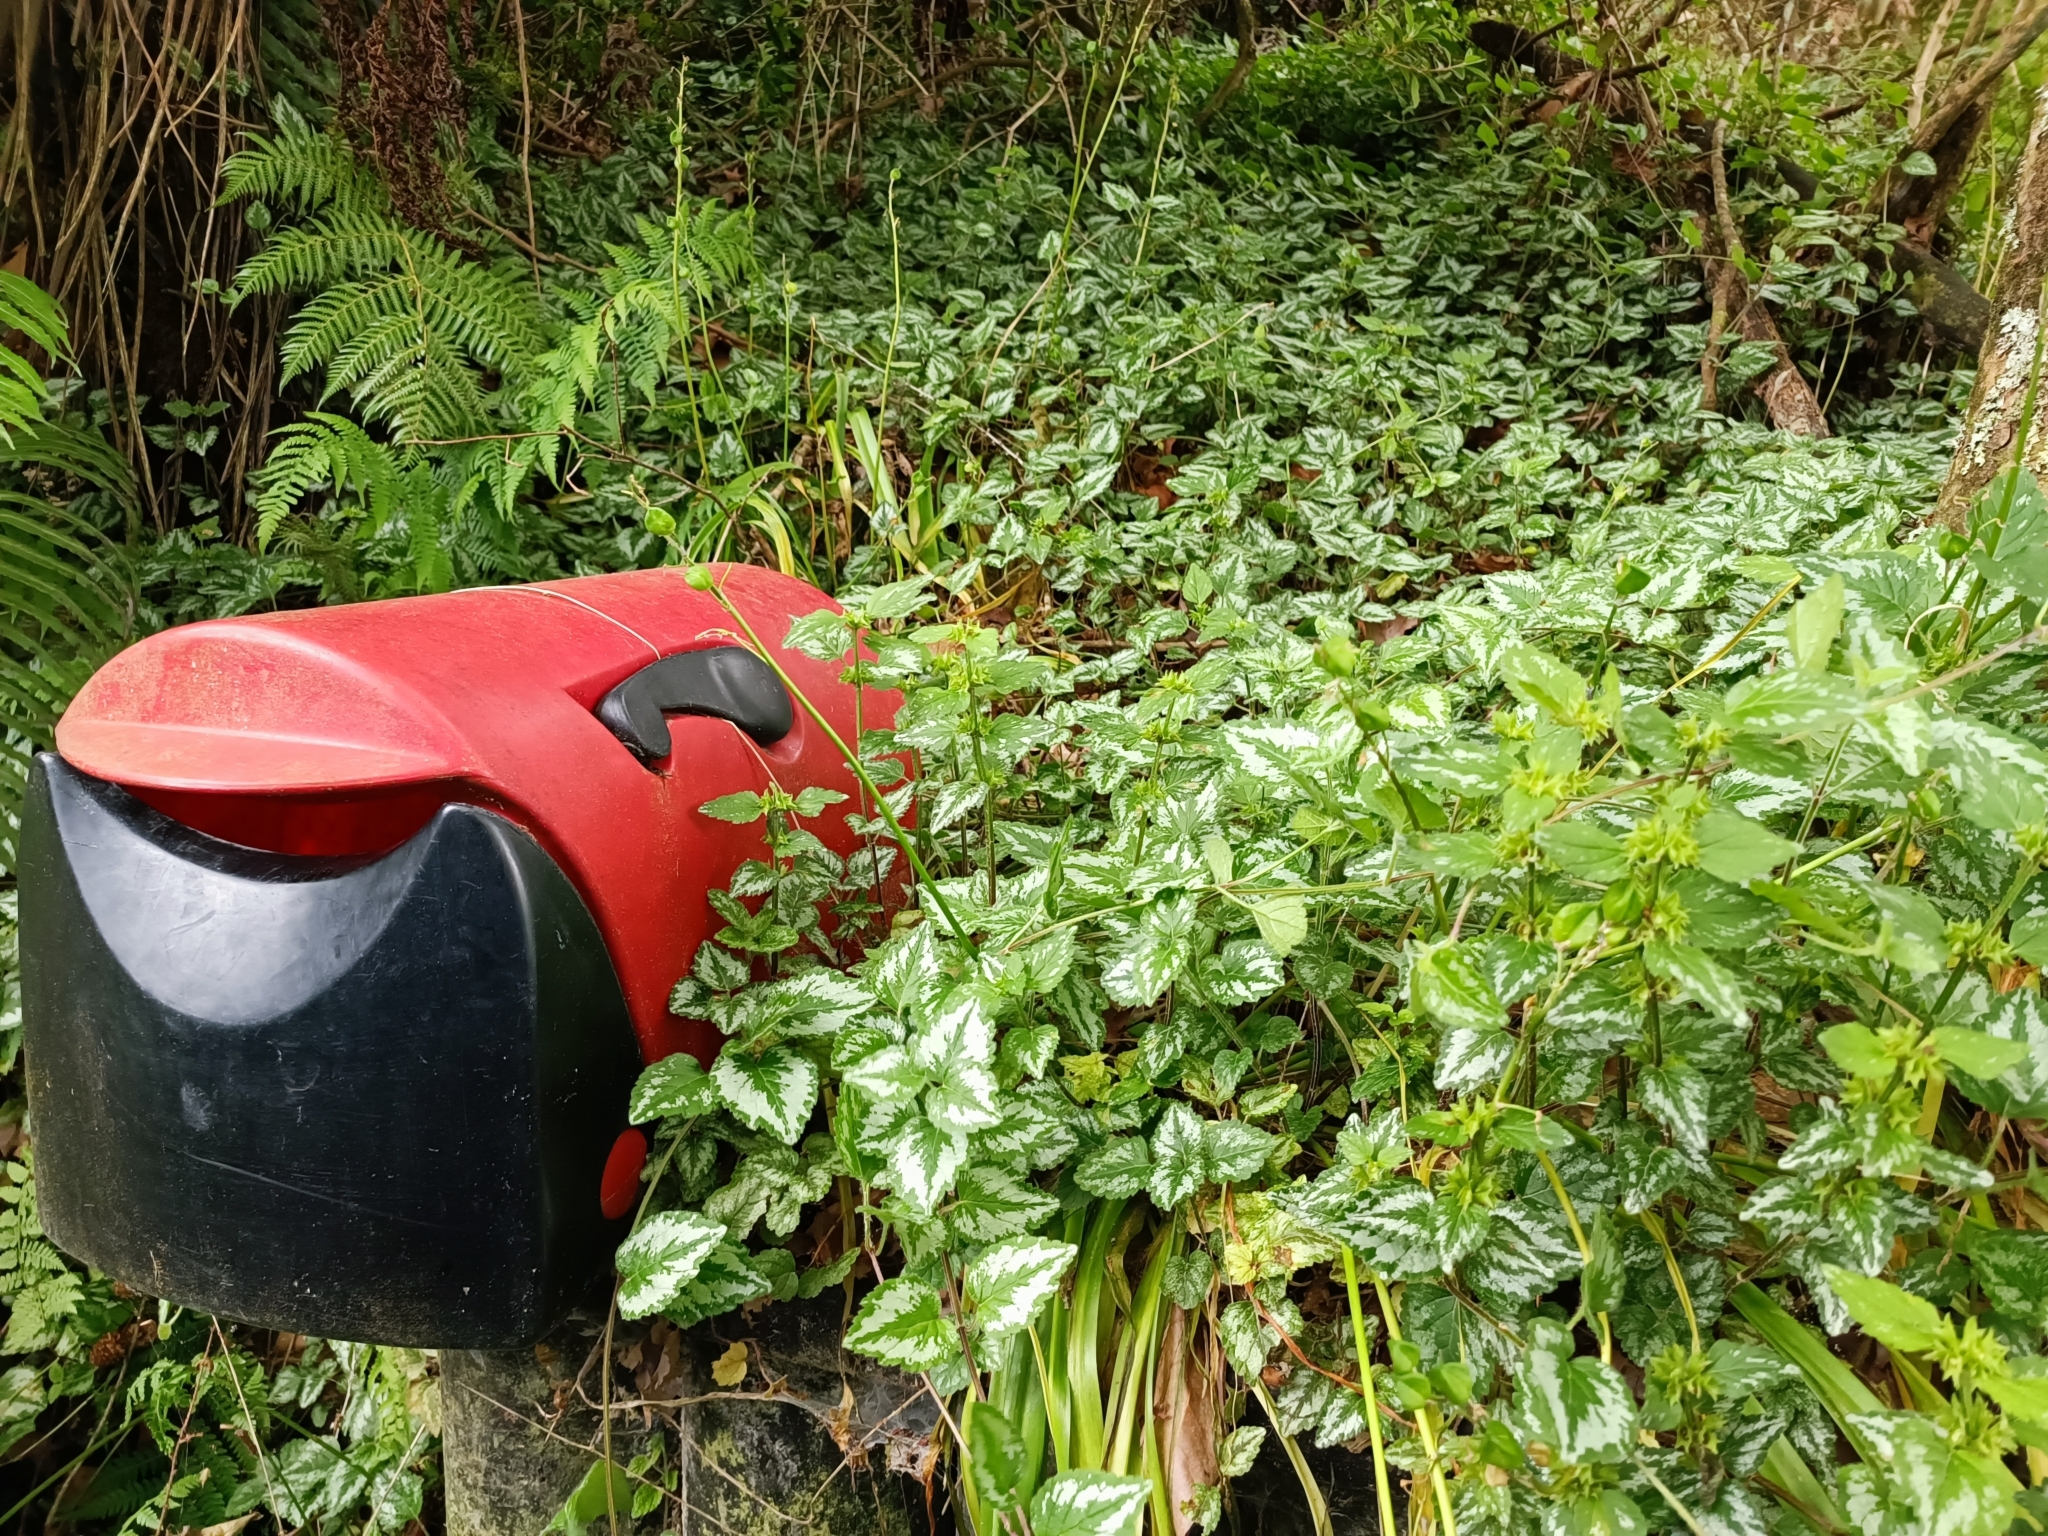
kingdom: Plantae
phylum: Tracheophyta
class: Magnoliopsida
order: Lamiales
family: Lamiaceae
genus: Lamium
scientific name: Lamium galeobdolon
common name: Yellow archangel
